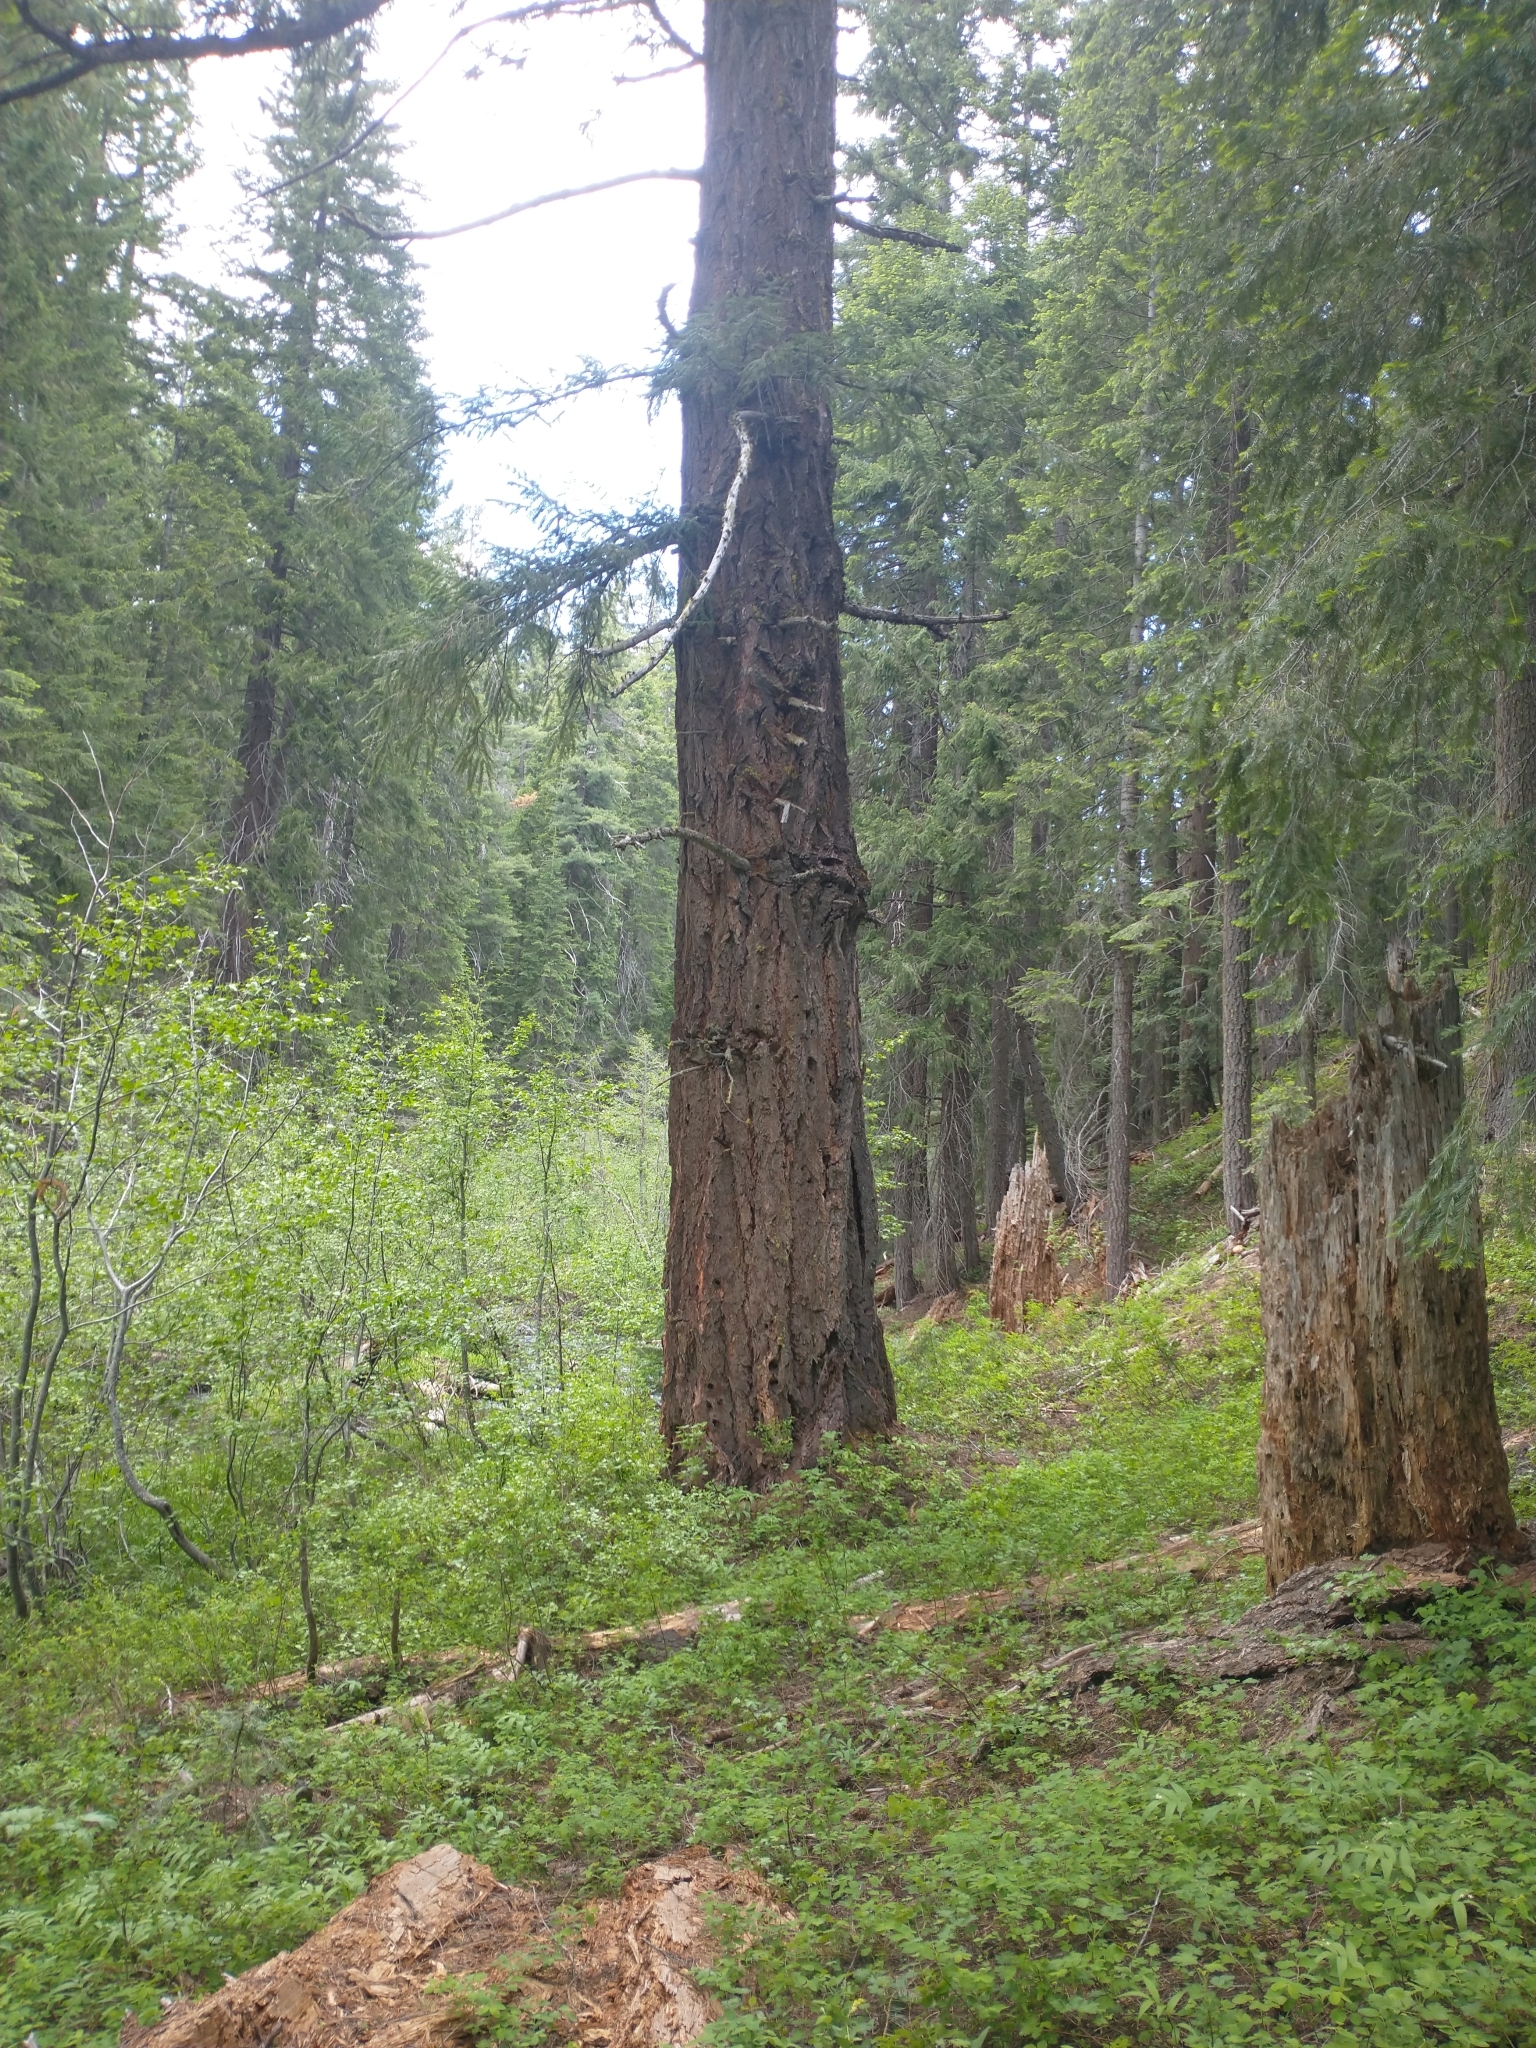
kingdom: Plantae
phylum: Tracheophyta
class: Pinopsida
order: Pinales
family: Pinaceae
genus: Pseudotsuga
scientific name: Pseudotsuga menziesii
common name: Douglas fir
